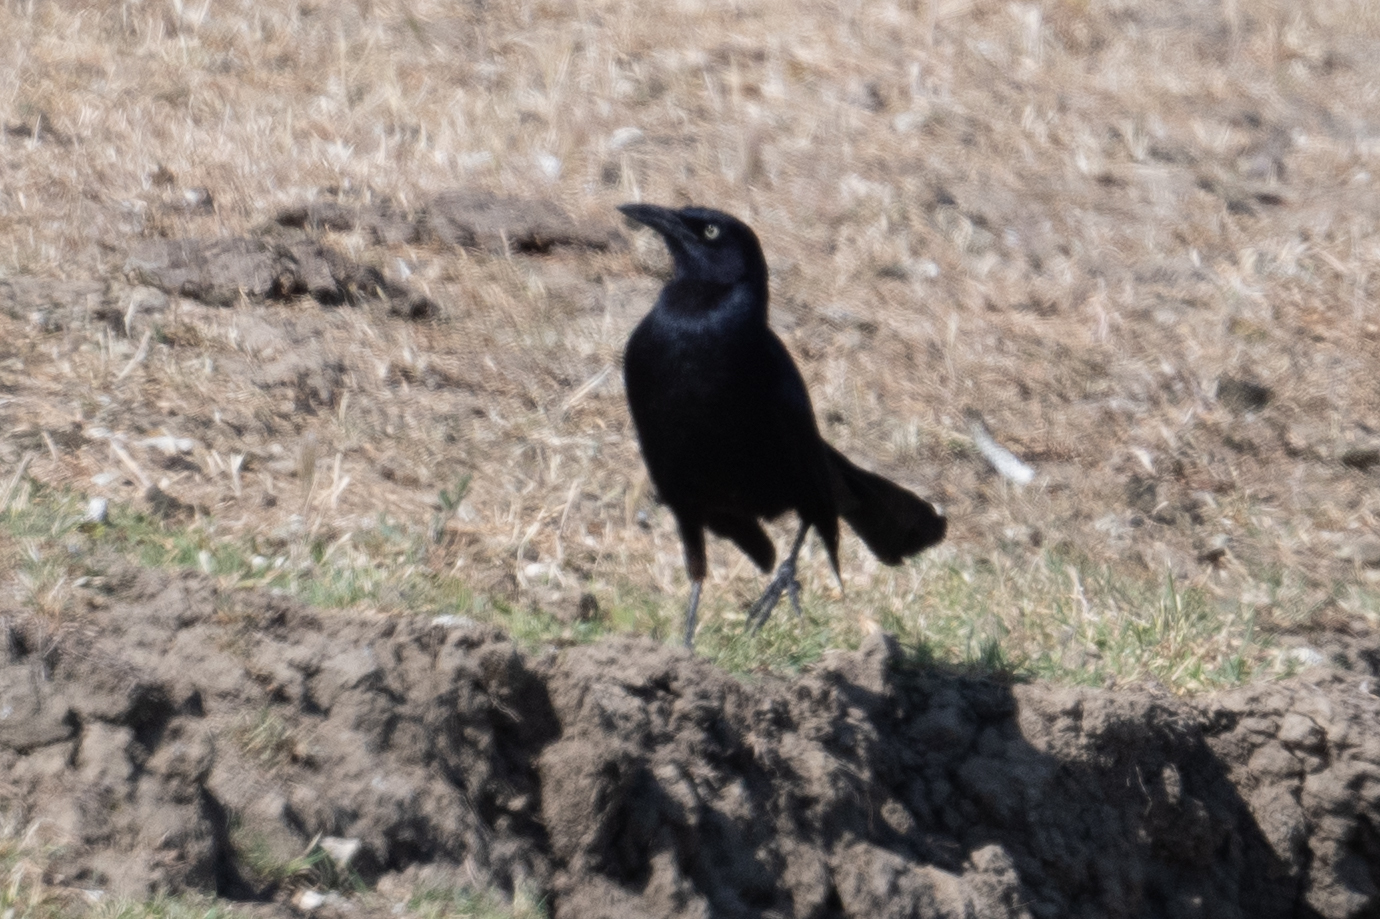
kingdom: Animalia
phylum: Chordata
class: Aves
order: Passeriformes
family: Icteridae
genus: Quiscalus
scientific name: Quiscalus mexicanus
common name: Great-tailed grackle
